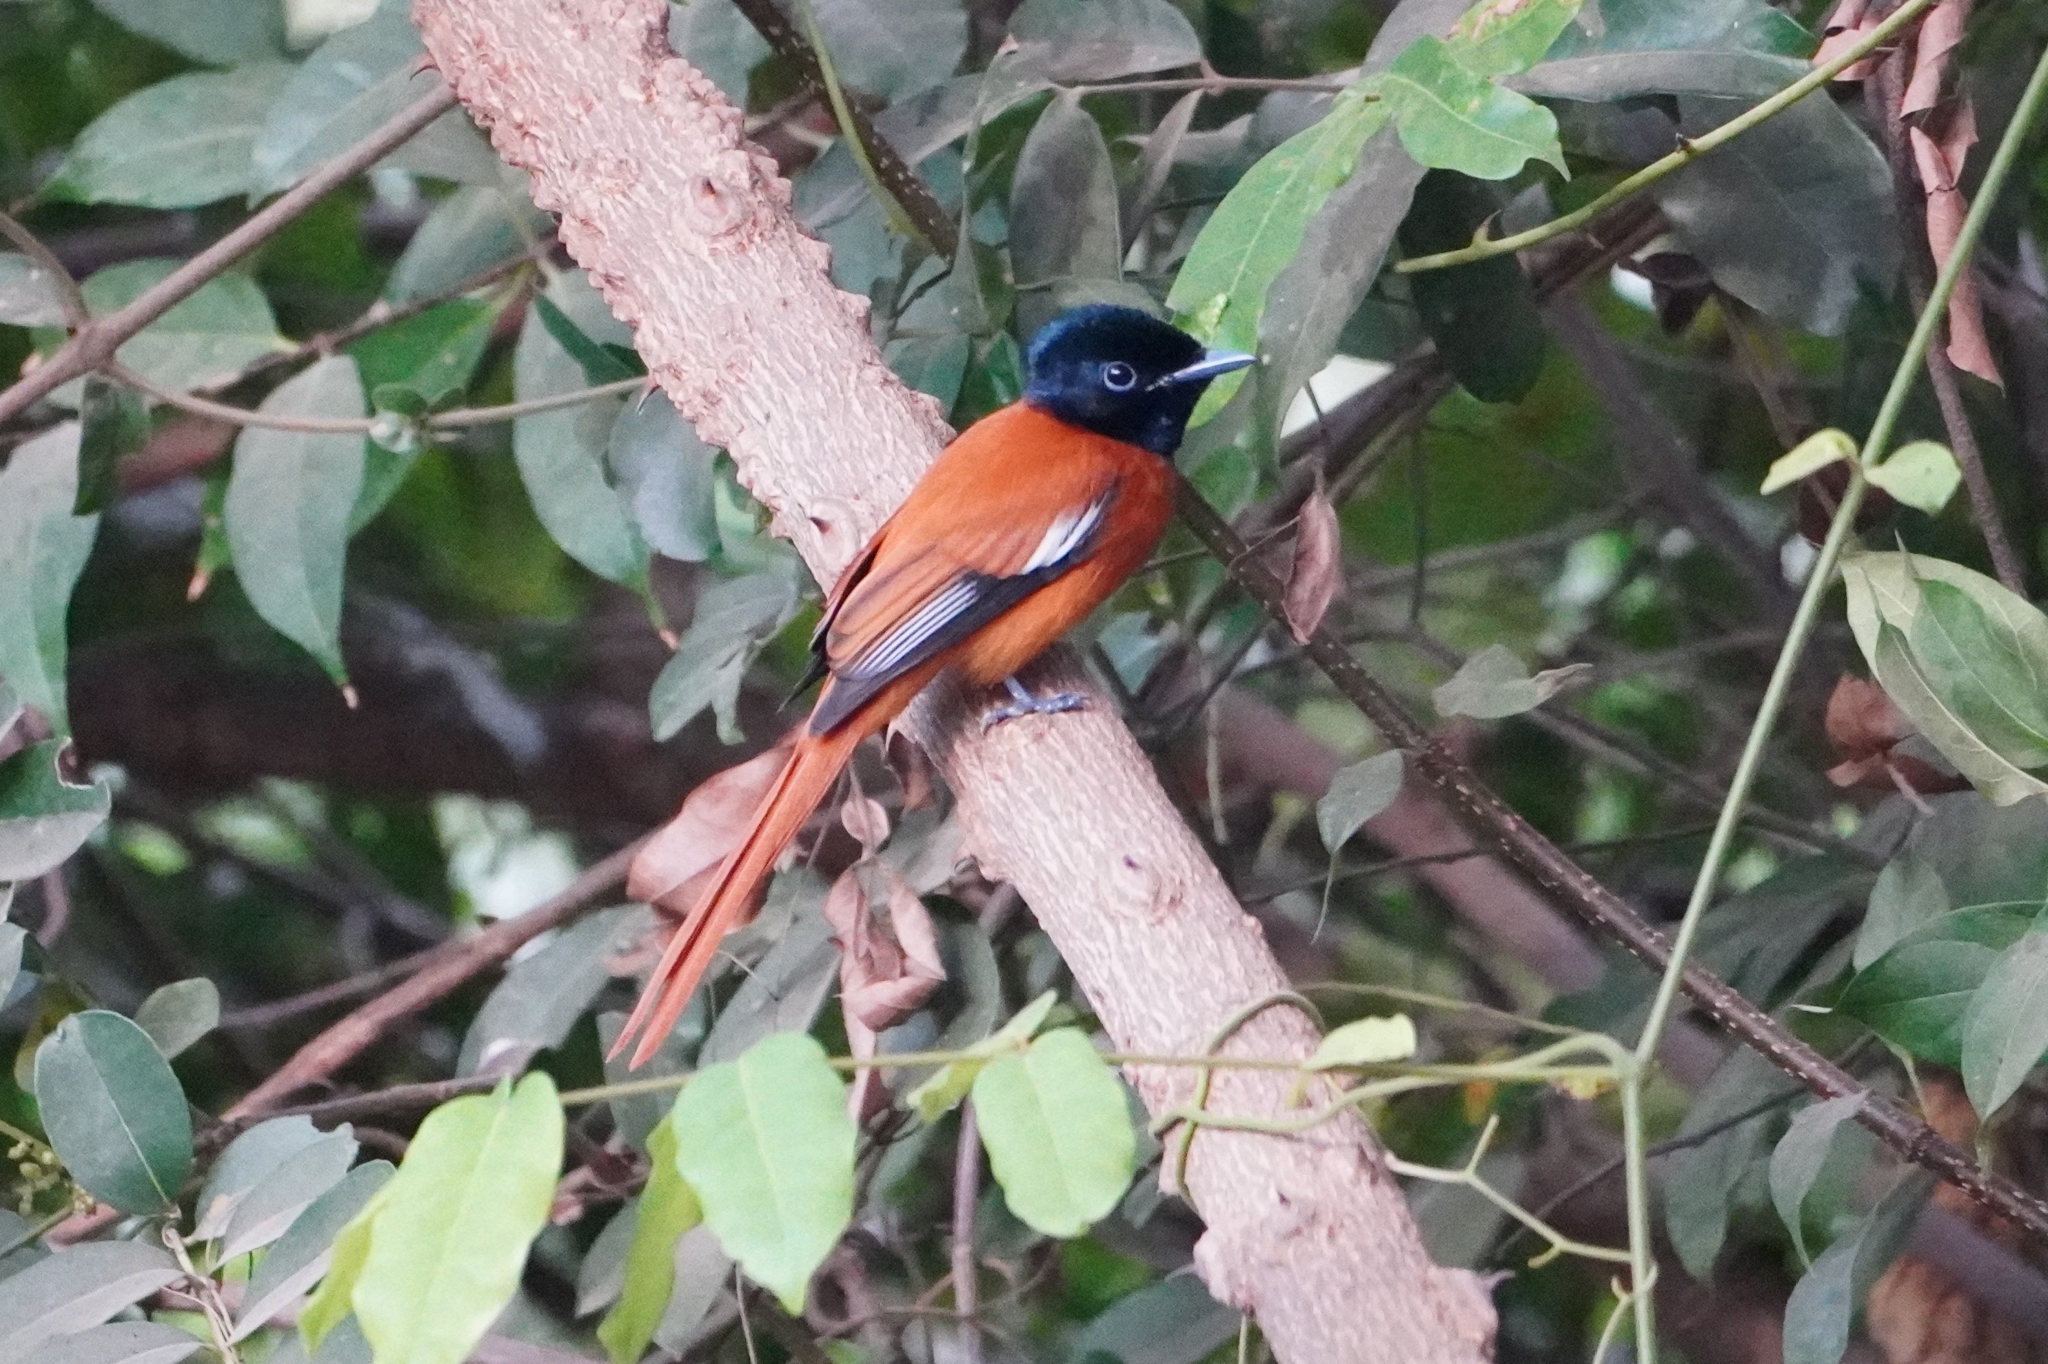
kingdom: Animalia
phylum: Chordata
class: Aves
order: Passeriformes
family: Monarchidae
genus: Terpsiphone
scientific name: Terpsiphone rufiventer
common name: Red-bellied paradise flycatcher
